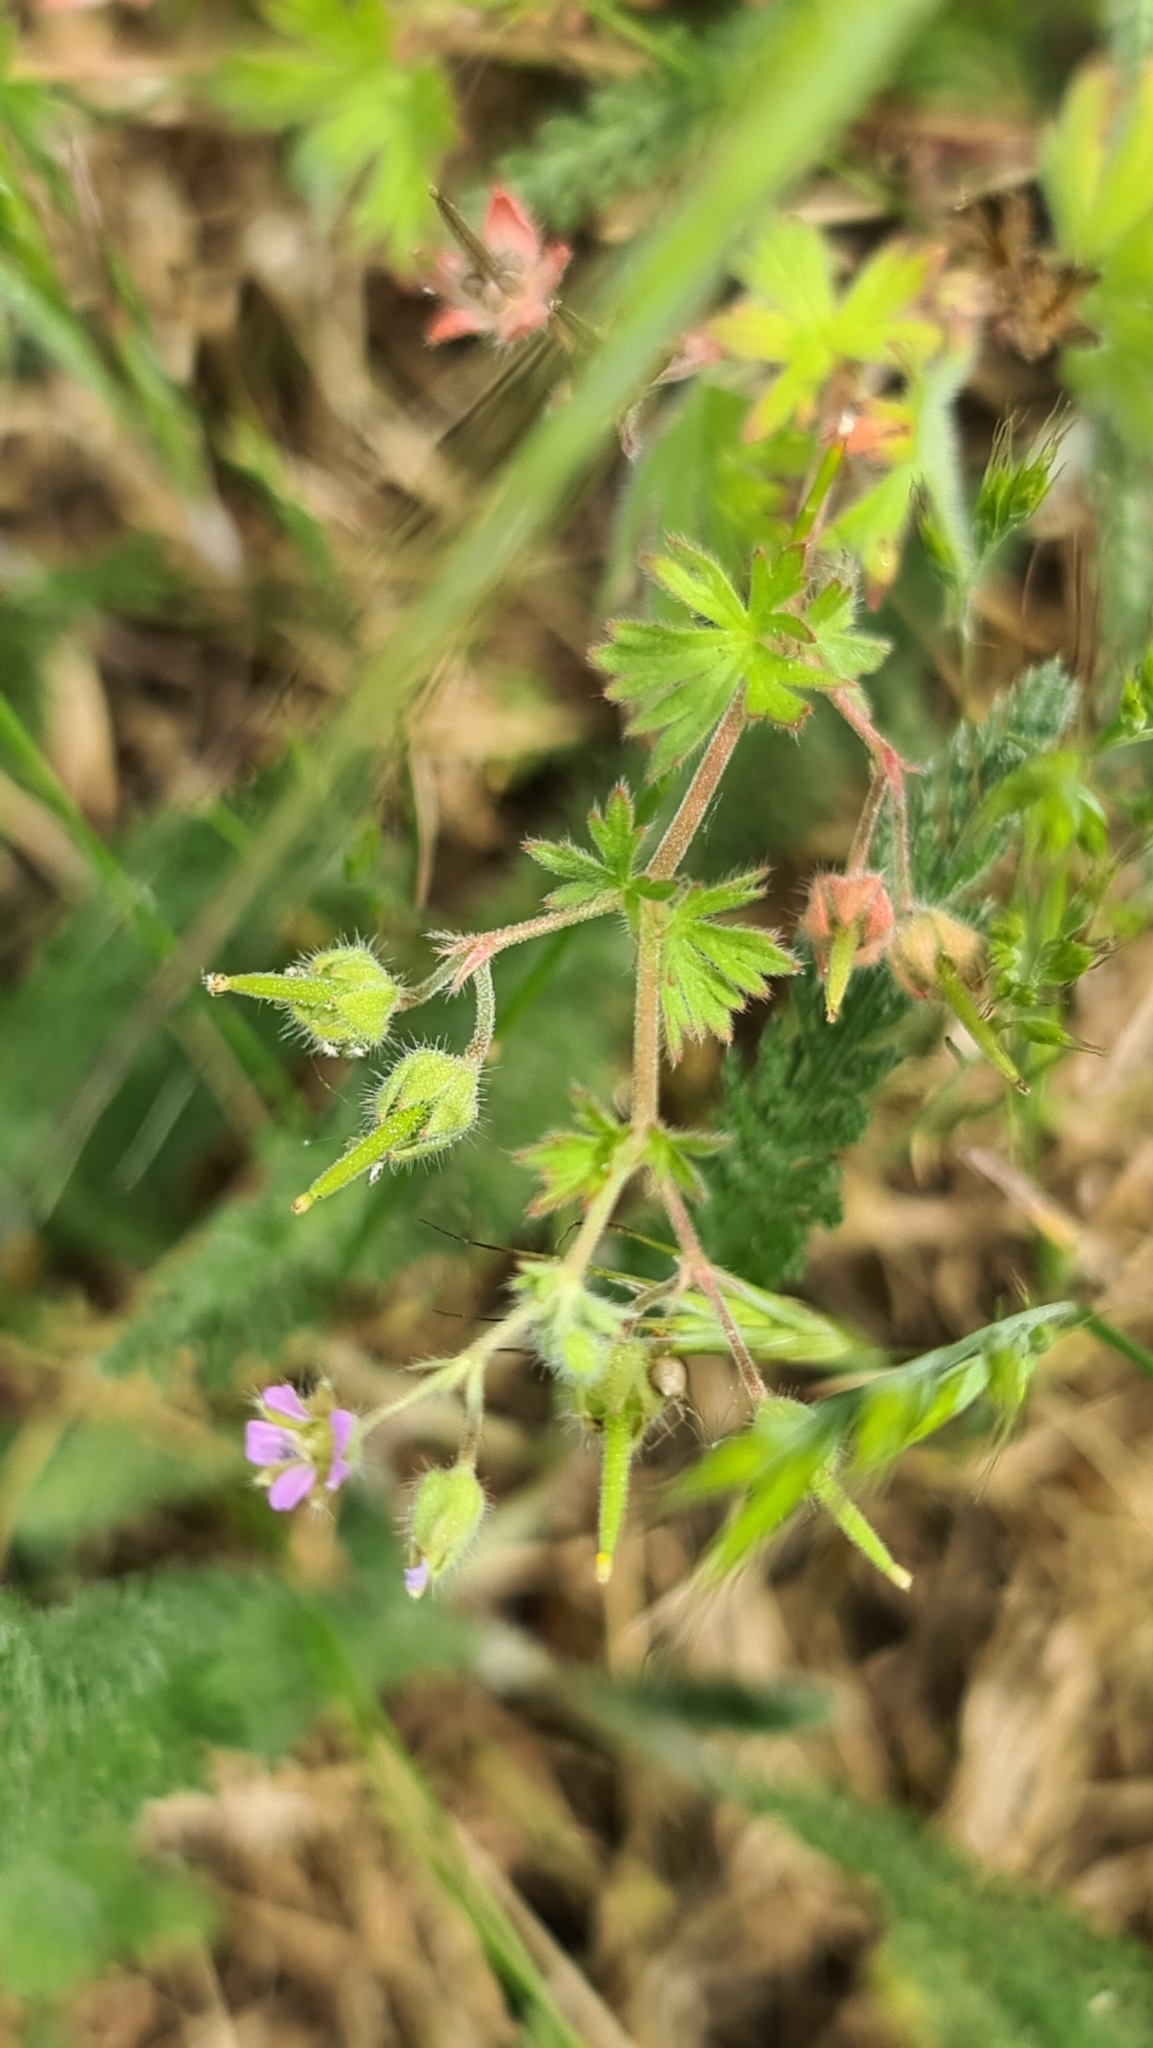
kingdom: Plantae
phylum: Tracheophyta
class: Magnoliopsida
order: Geraniales
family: Geraniaceae
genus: Geranium
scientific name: Geranium pusillum
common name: Small geranium
